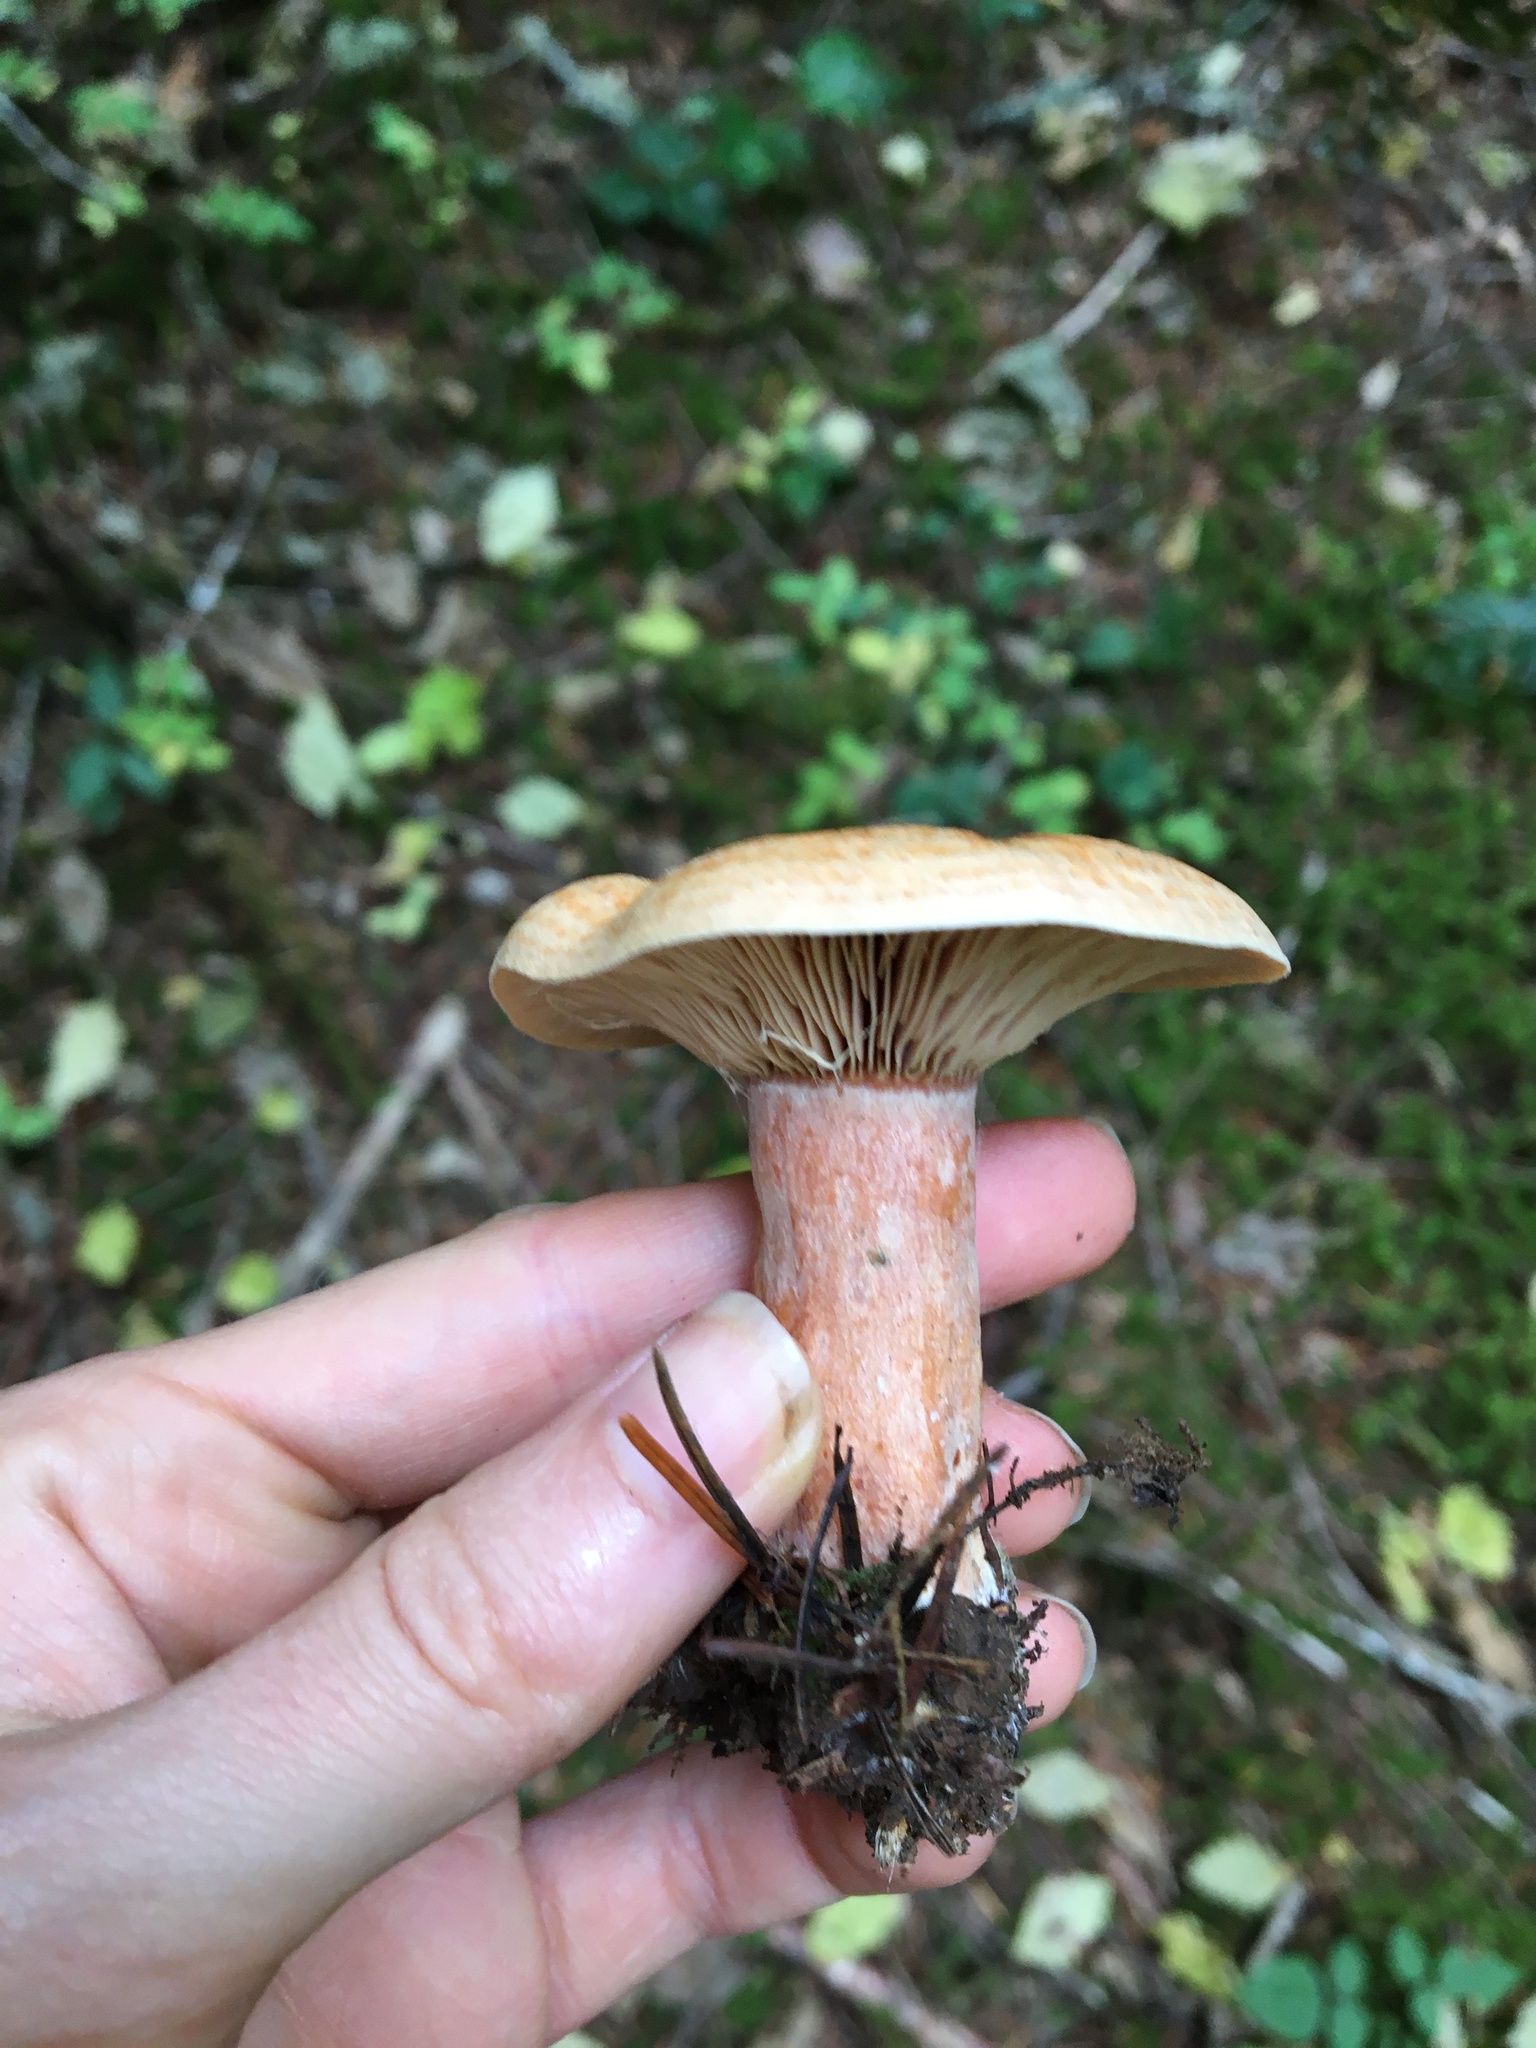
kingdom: Fungi
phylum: Basidiomycota
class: Agaricomycetes
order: Russulales
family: Russulaceae
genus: Lactarius
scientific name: Lactarius rubrilacteus
